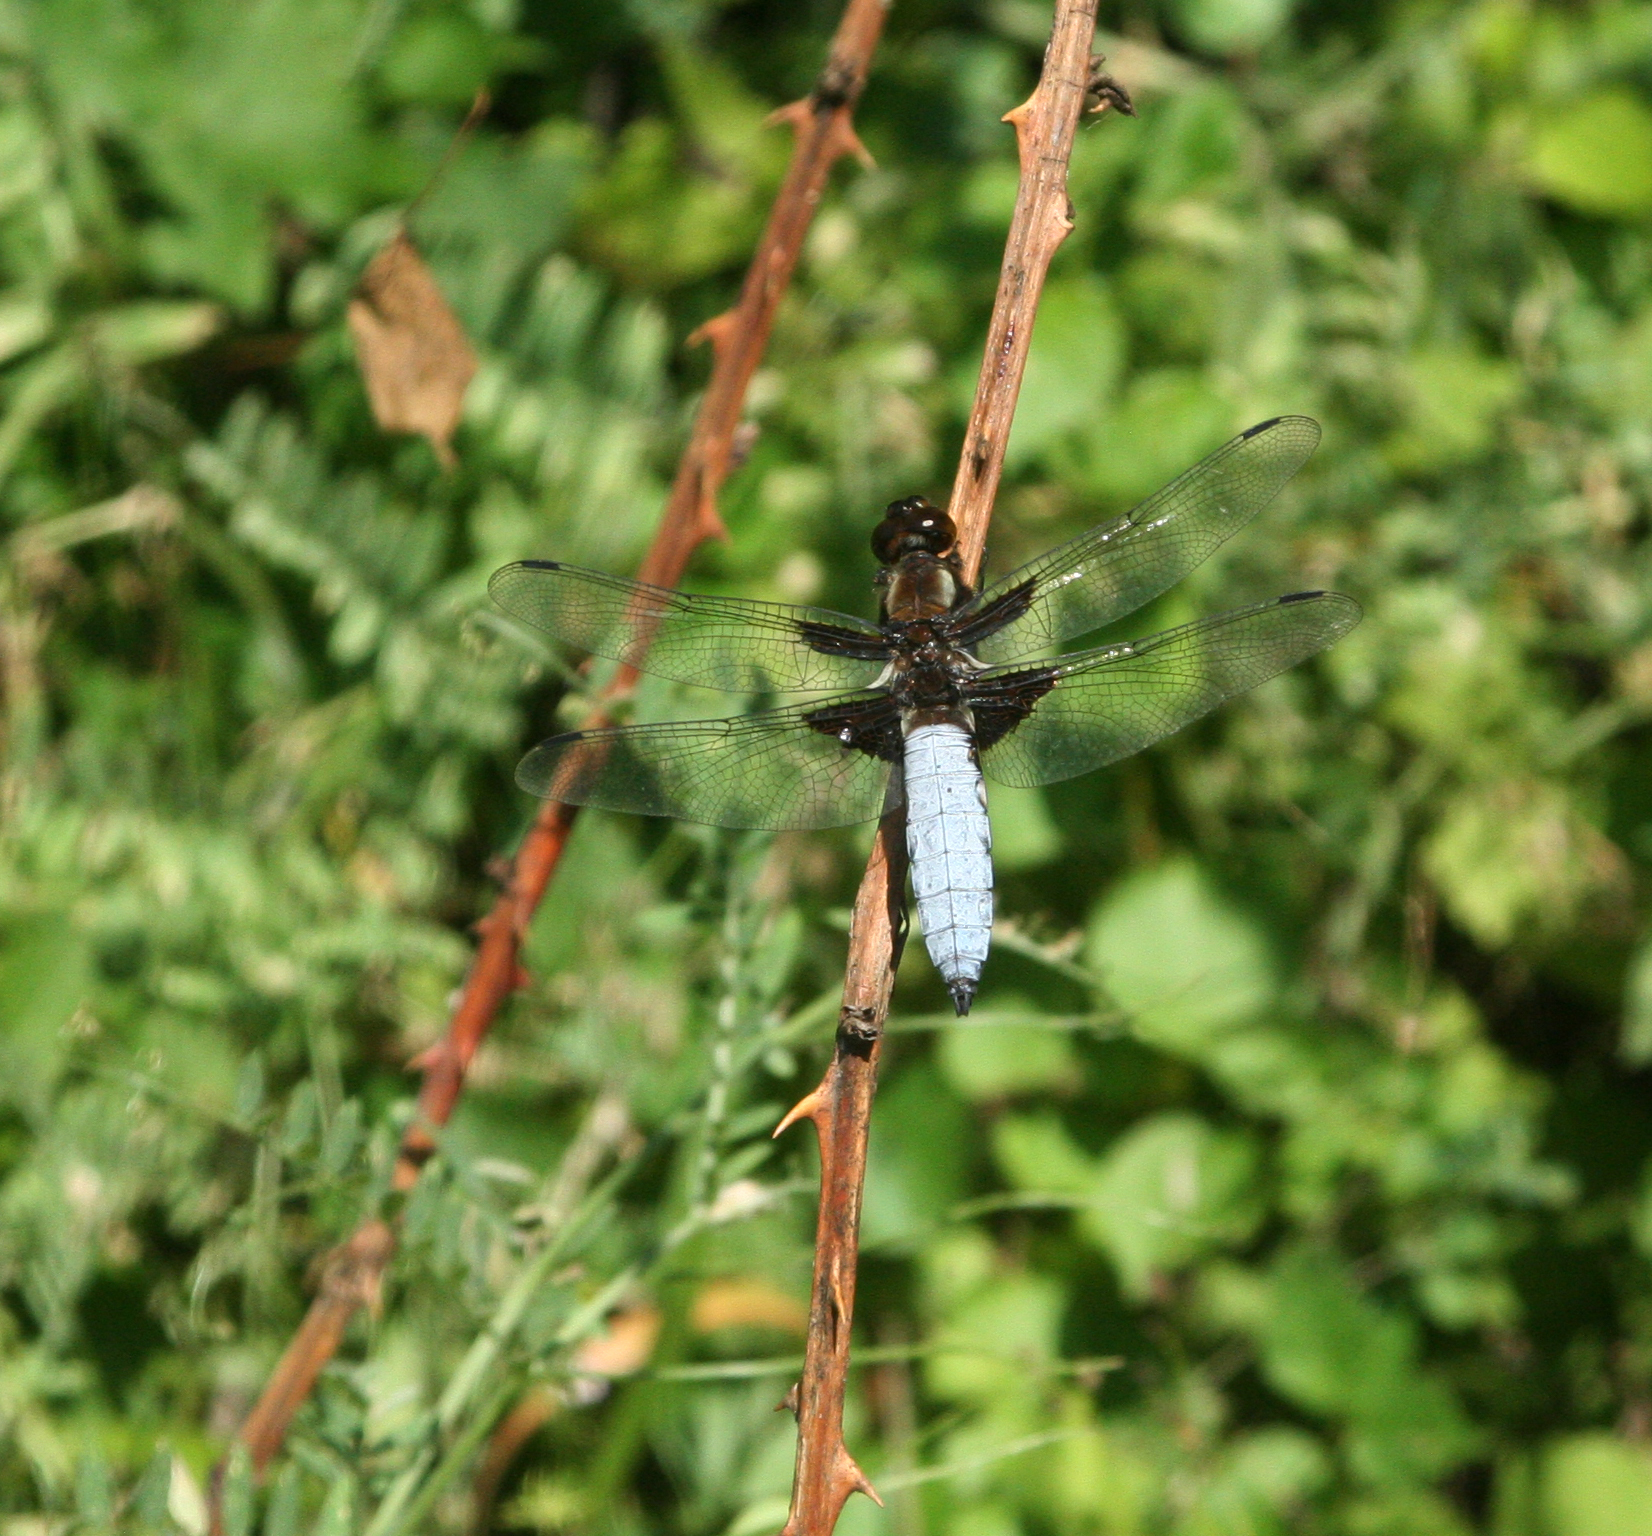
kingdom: Animalia
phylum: Arthropoda
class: Insecta
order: Odonata
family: Libellulidae
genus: Libellula
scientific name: Libellula depressa
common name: Broad-bodied chaser
